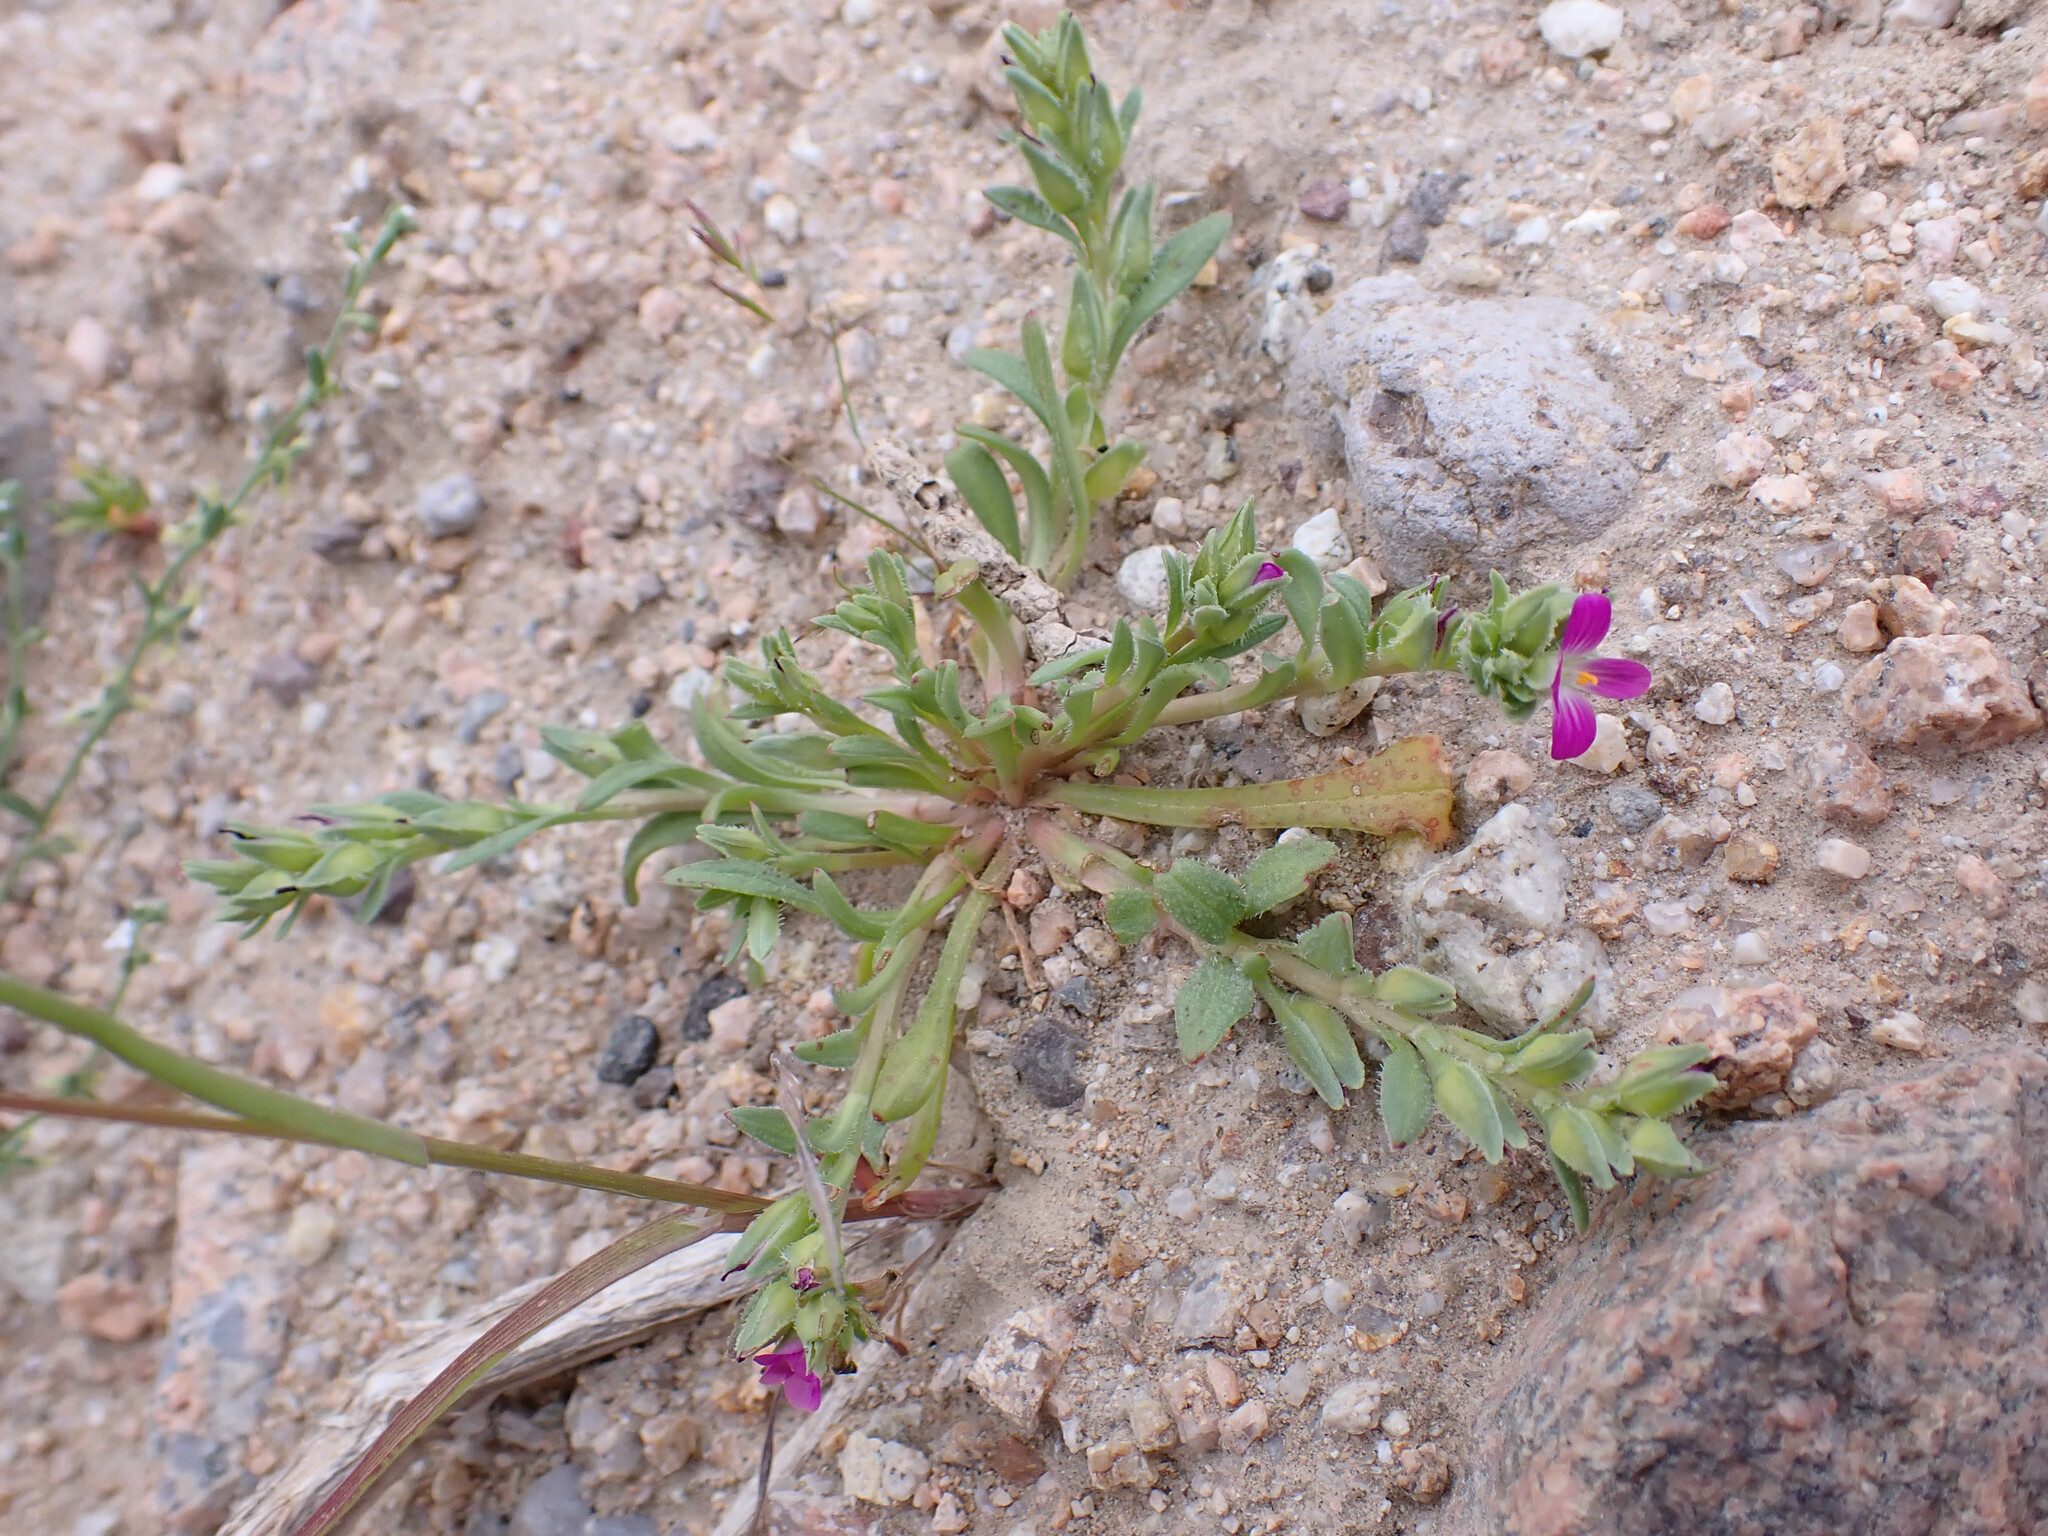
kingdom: Plantae
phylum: Tracheophyta
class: Magnoliopsida
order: Caryophyllales
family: Montiaceae
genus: Calandrinia
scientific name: Calandrinia menziesii
